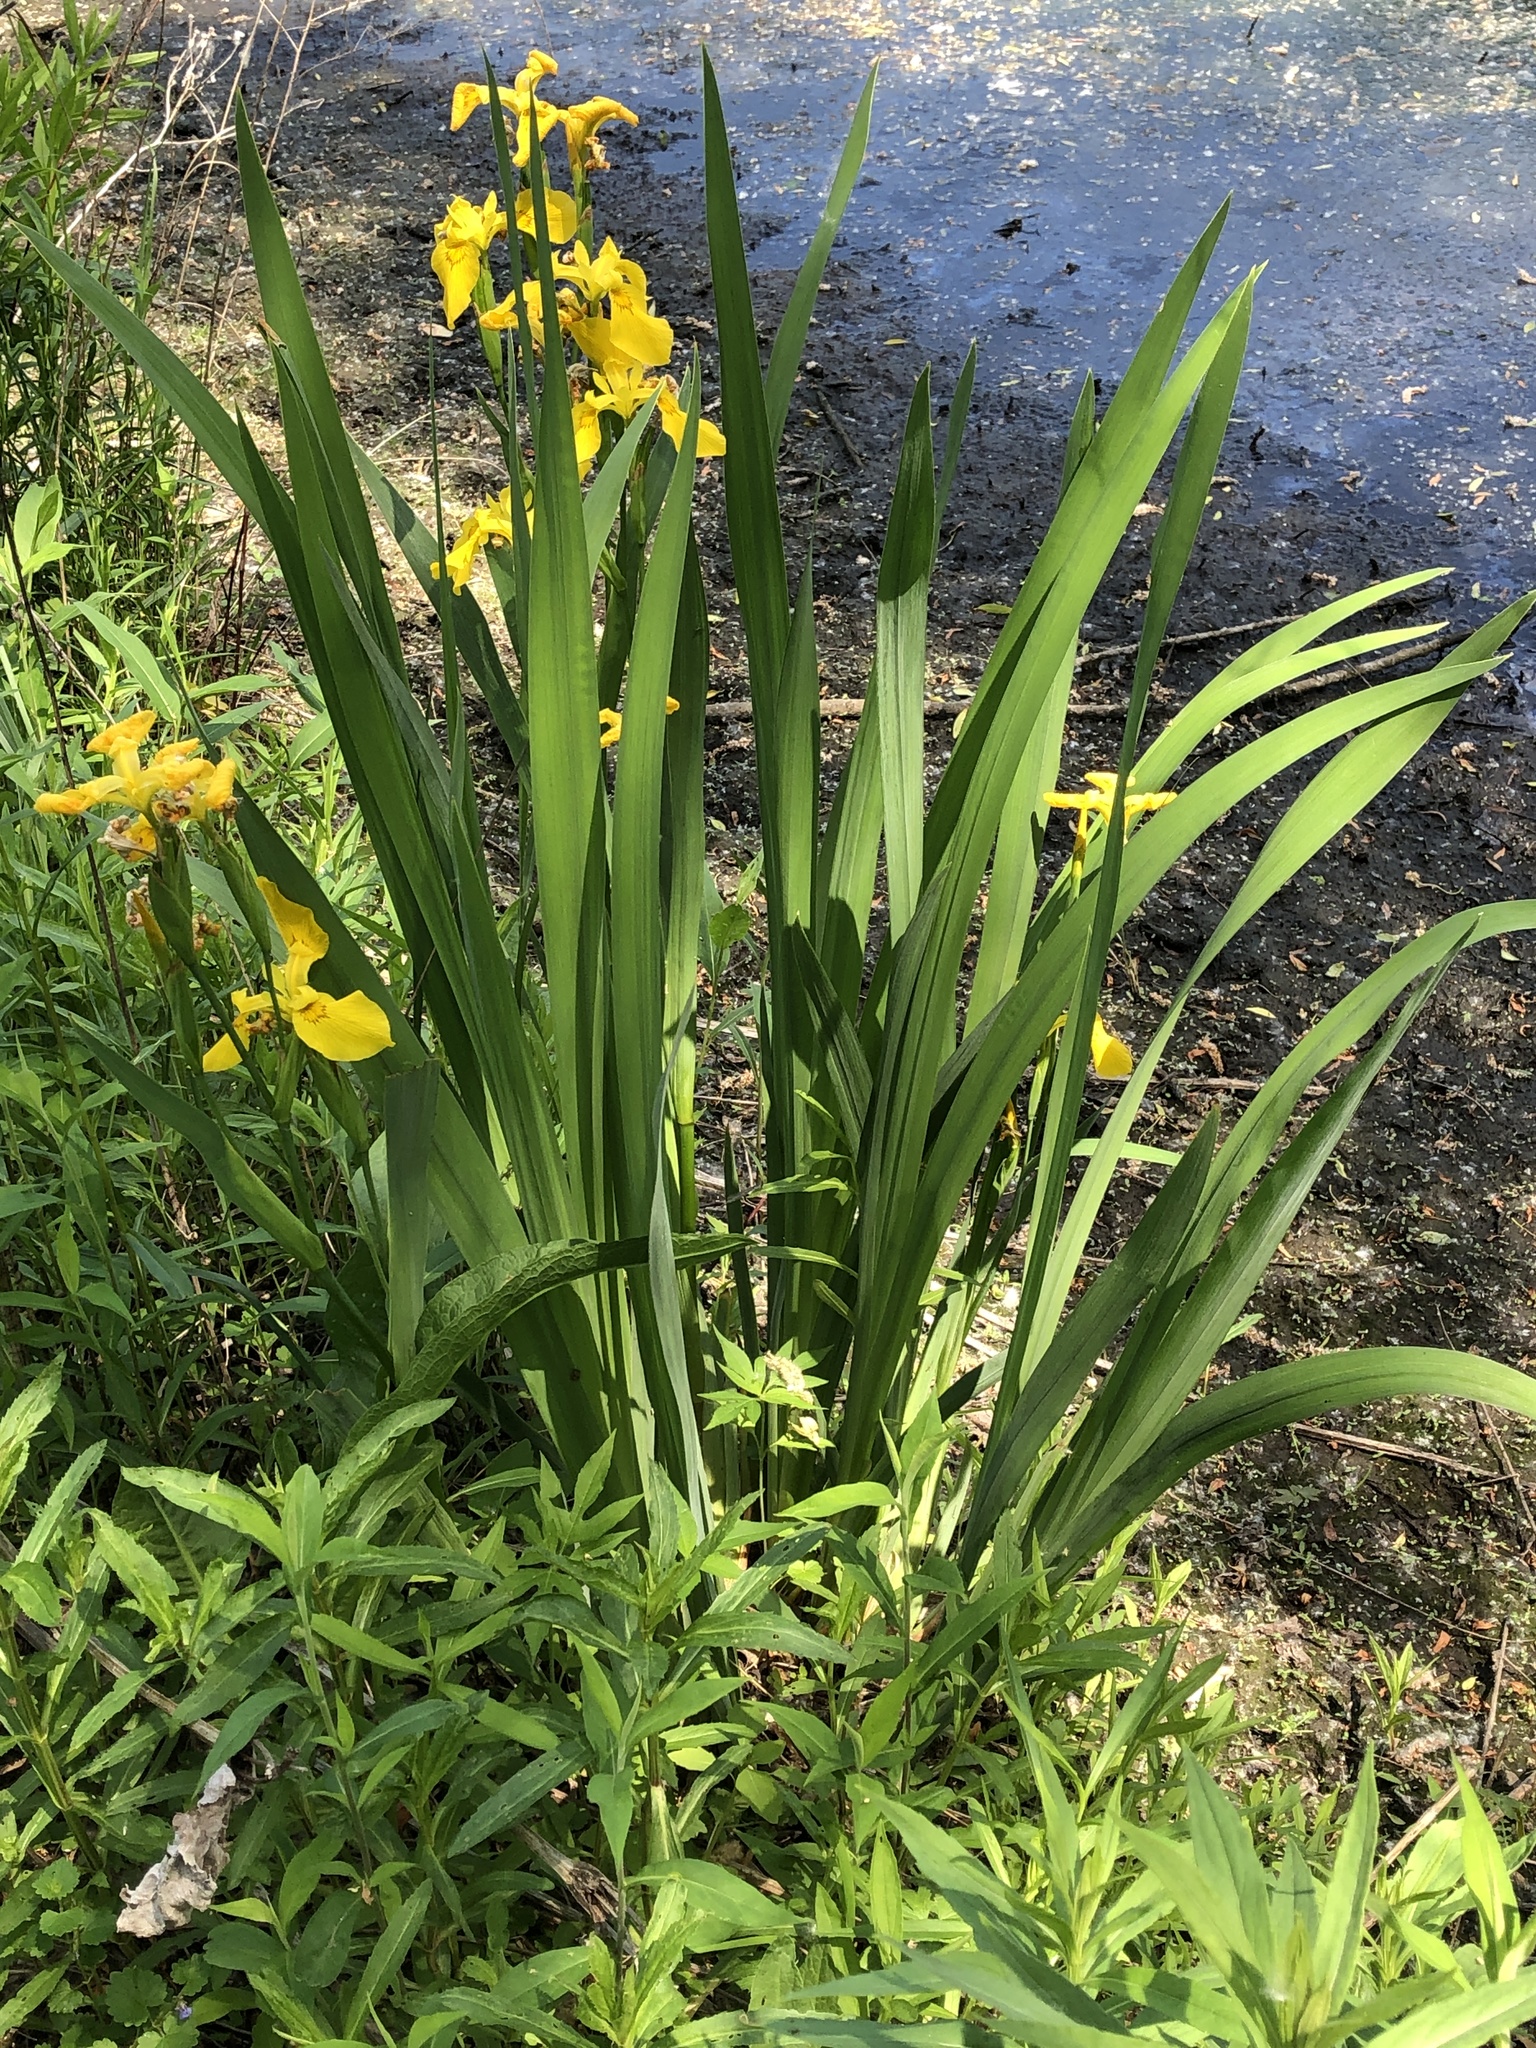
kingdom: Plantae
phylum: Tracheophyta
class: Liliopsida
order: Asparagales
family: Iridaceae
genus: Iris
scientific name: Iris pseudacorus
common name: Yellow flag
